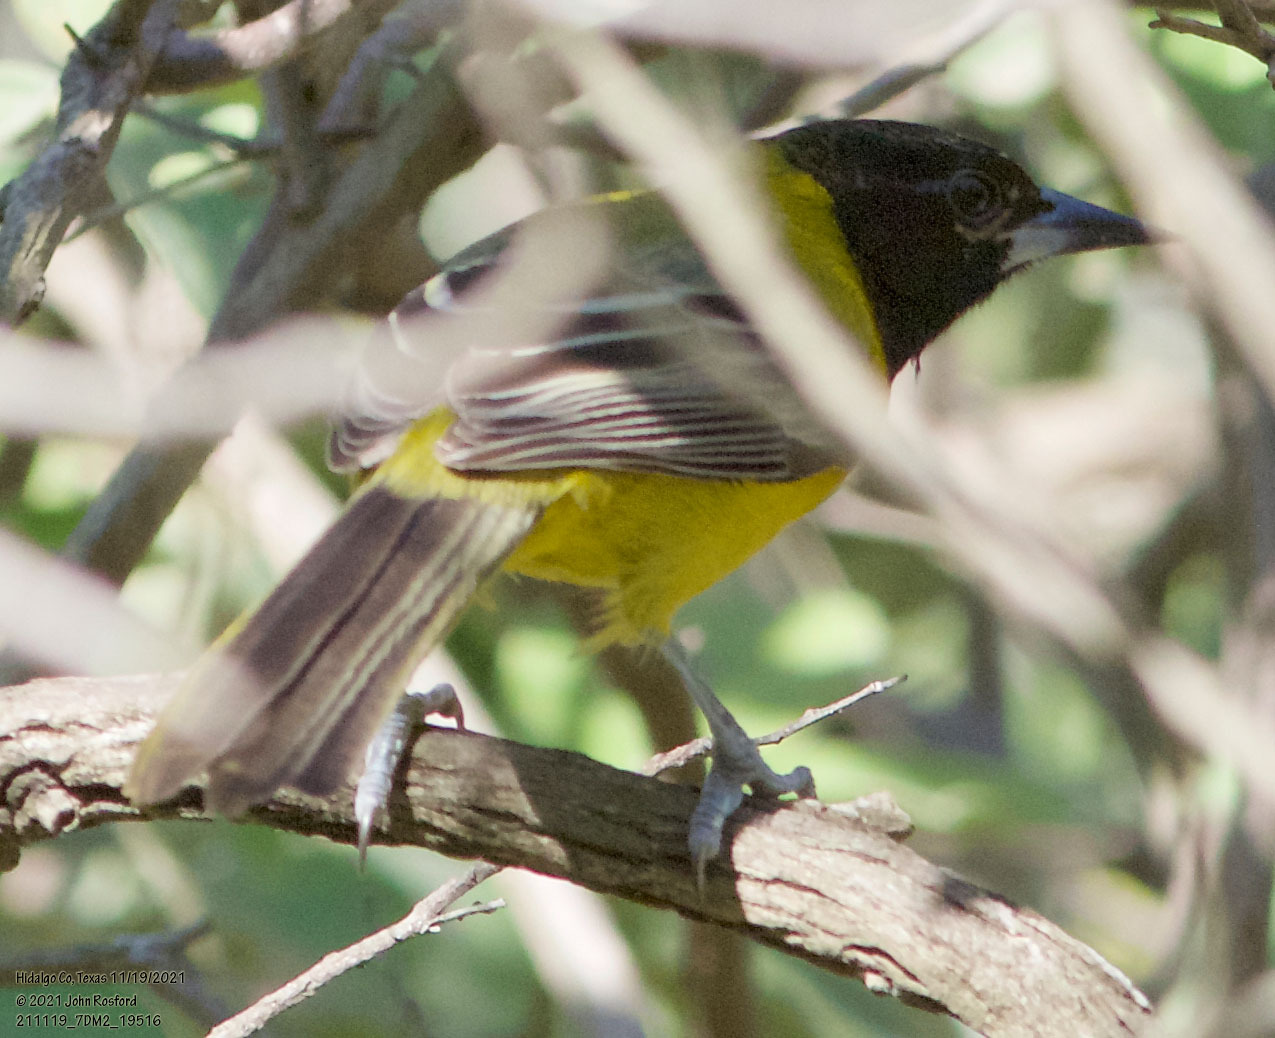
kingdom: Animalia
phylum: Chordata
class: Aves
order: Passeriformes
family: Icteridae
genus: Icterus
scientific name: Icterus graduacauda
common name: Audubon's oriole
